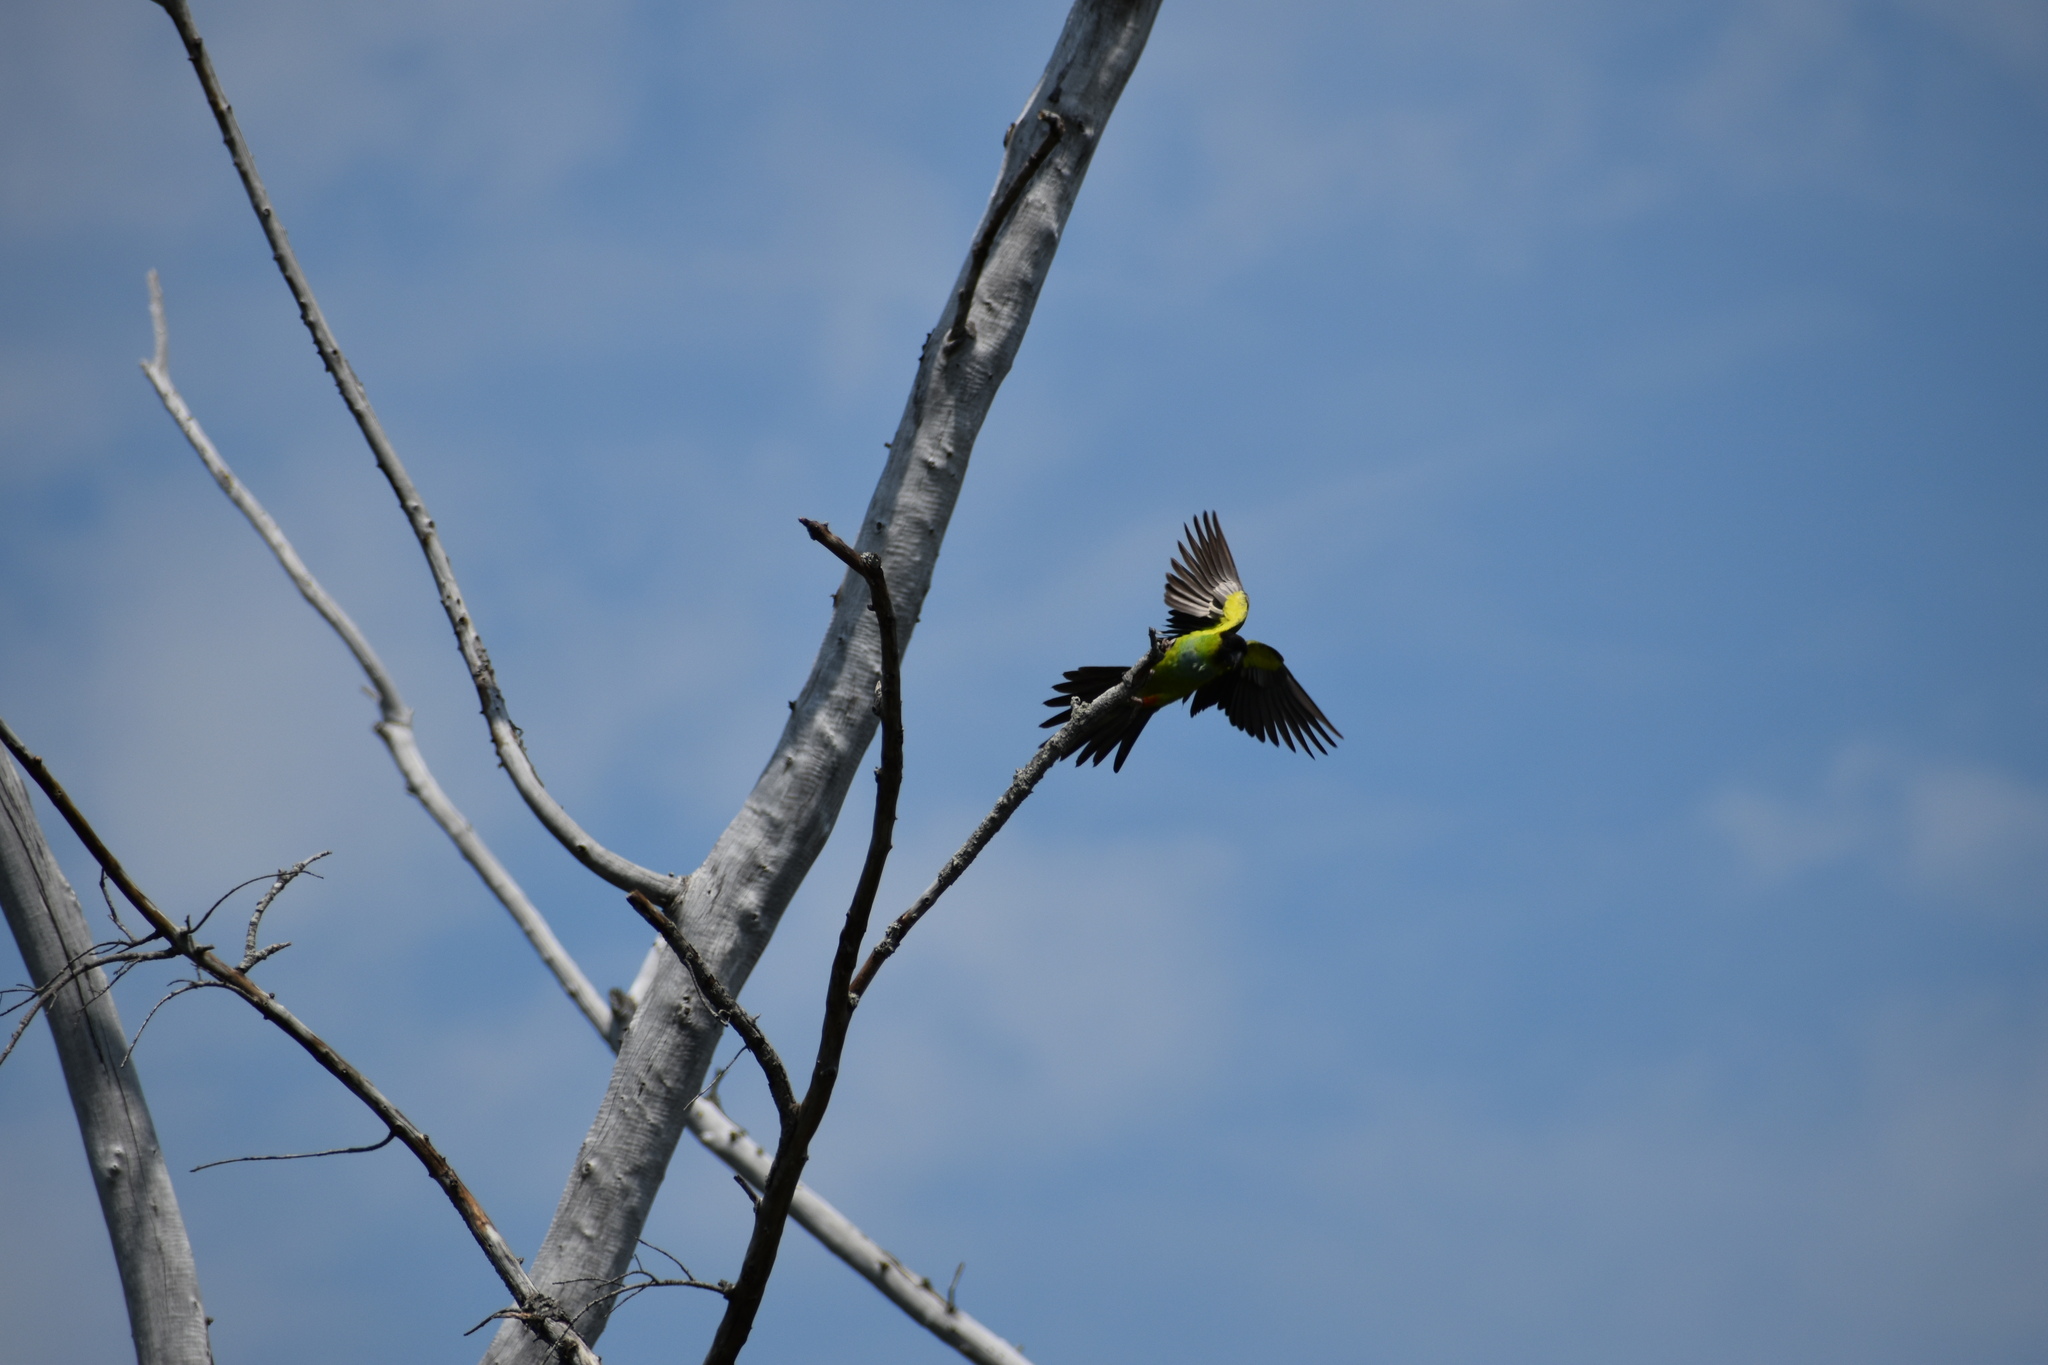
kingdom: Animalia
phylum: Chordata
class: Aves
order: Psittaciformes
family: Psittacidae
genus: Nandayus
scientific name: Nandayus nenday
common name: Nanday parakeet
